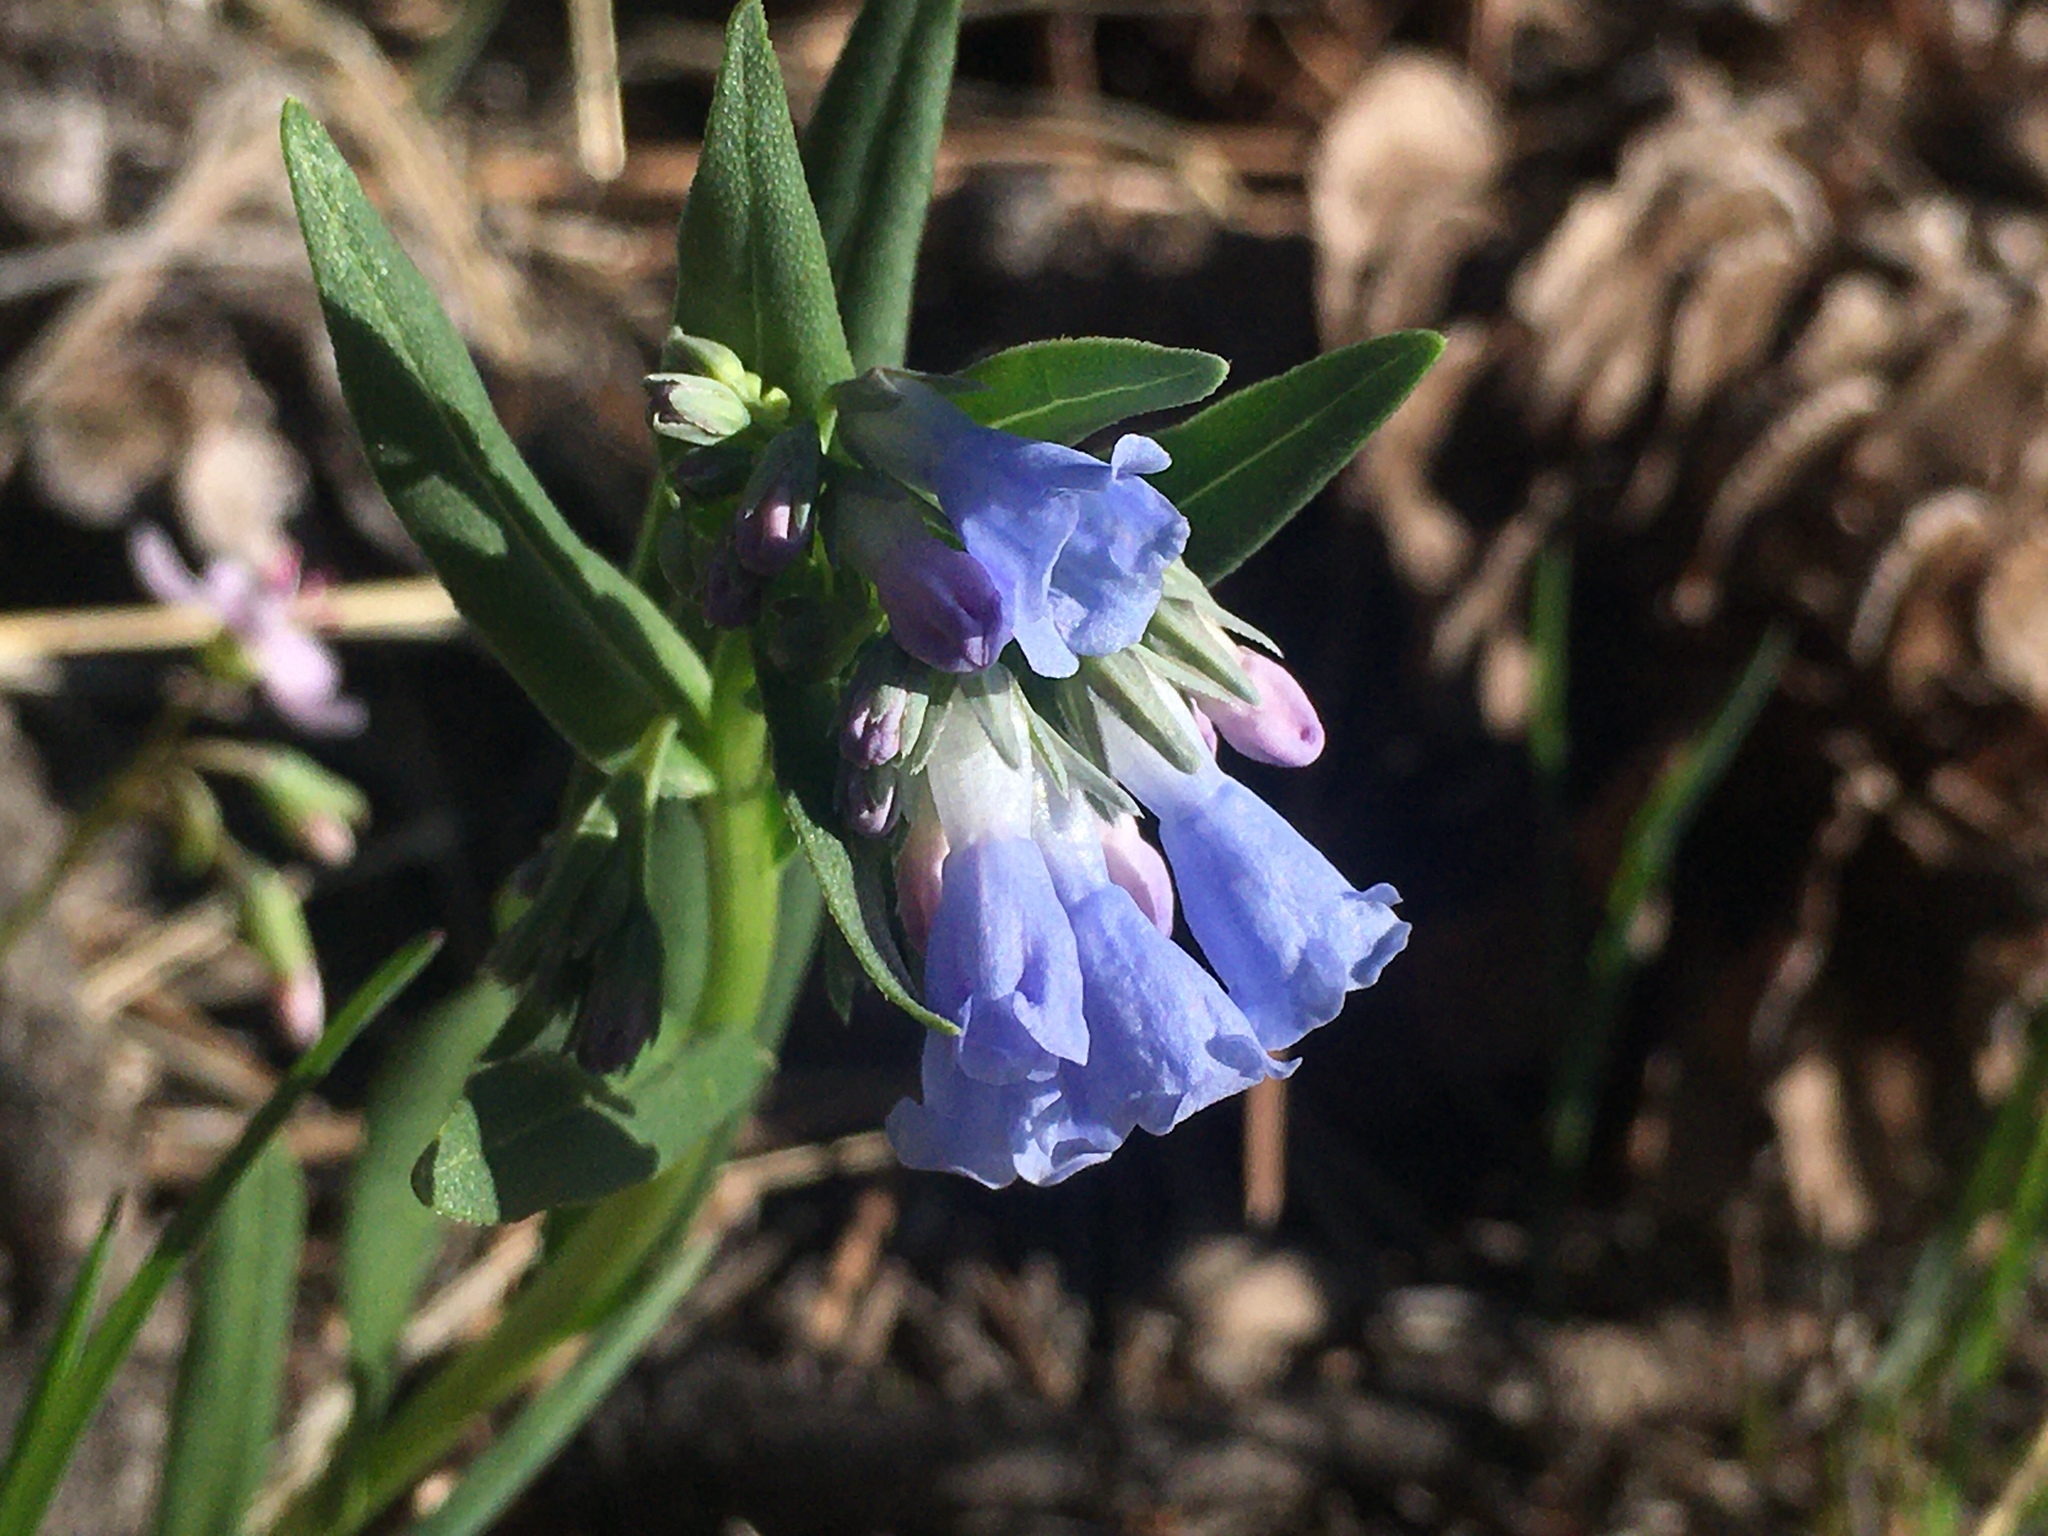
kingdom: Plantae
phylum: Tracheophyta
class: Magnoliopsida
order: Boraginales
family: Boraginaceae
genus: Mertensia
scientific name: Mertensia lanceolata
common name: Lance-leaved bluebells
